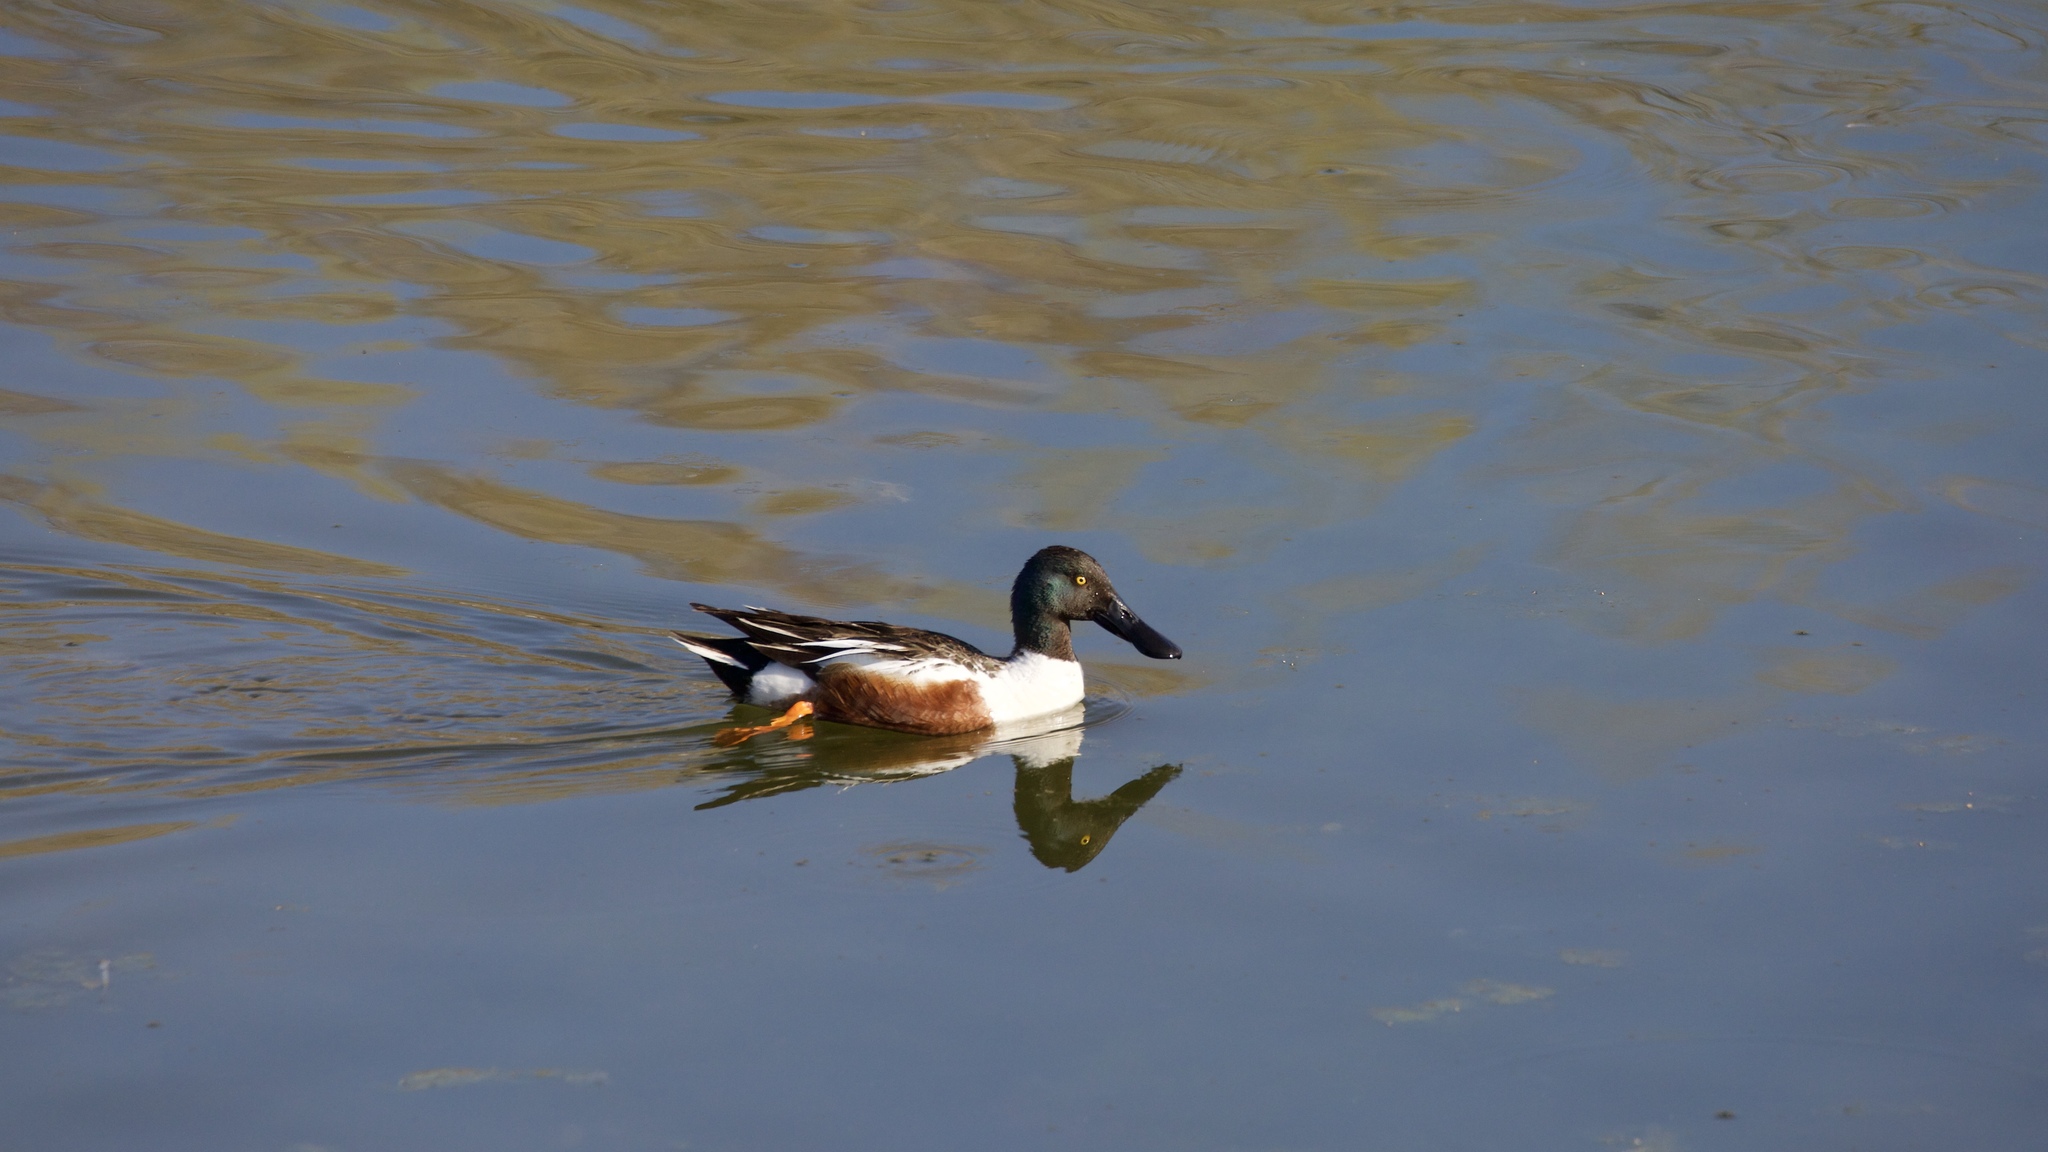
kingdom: Animalia
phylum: Chordata
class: Aves
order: Anseriformes
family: Anatidae
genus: Spatula
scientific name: Spatula clypeata
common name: Northern shoveler
